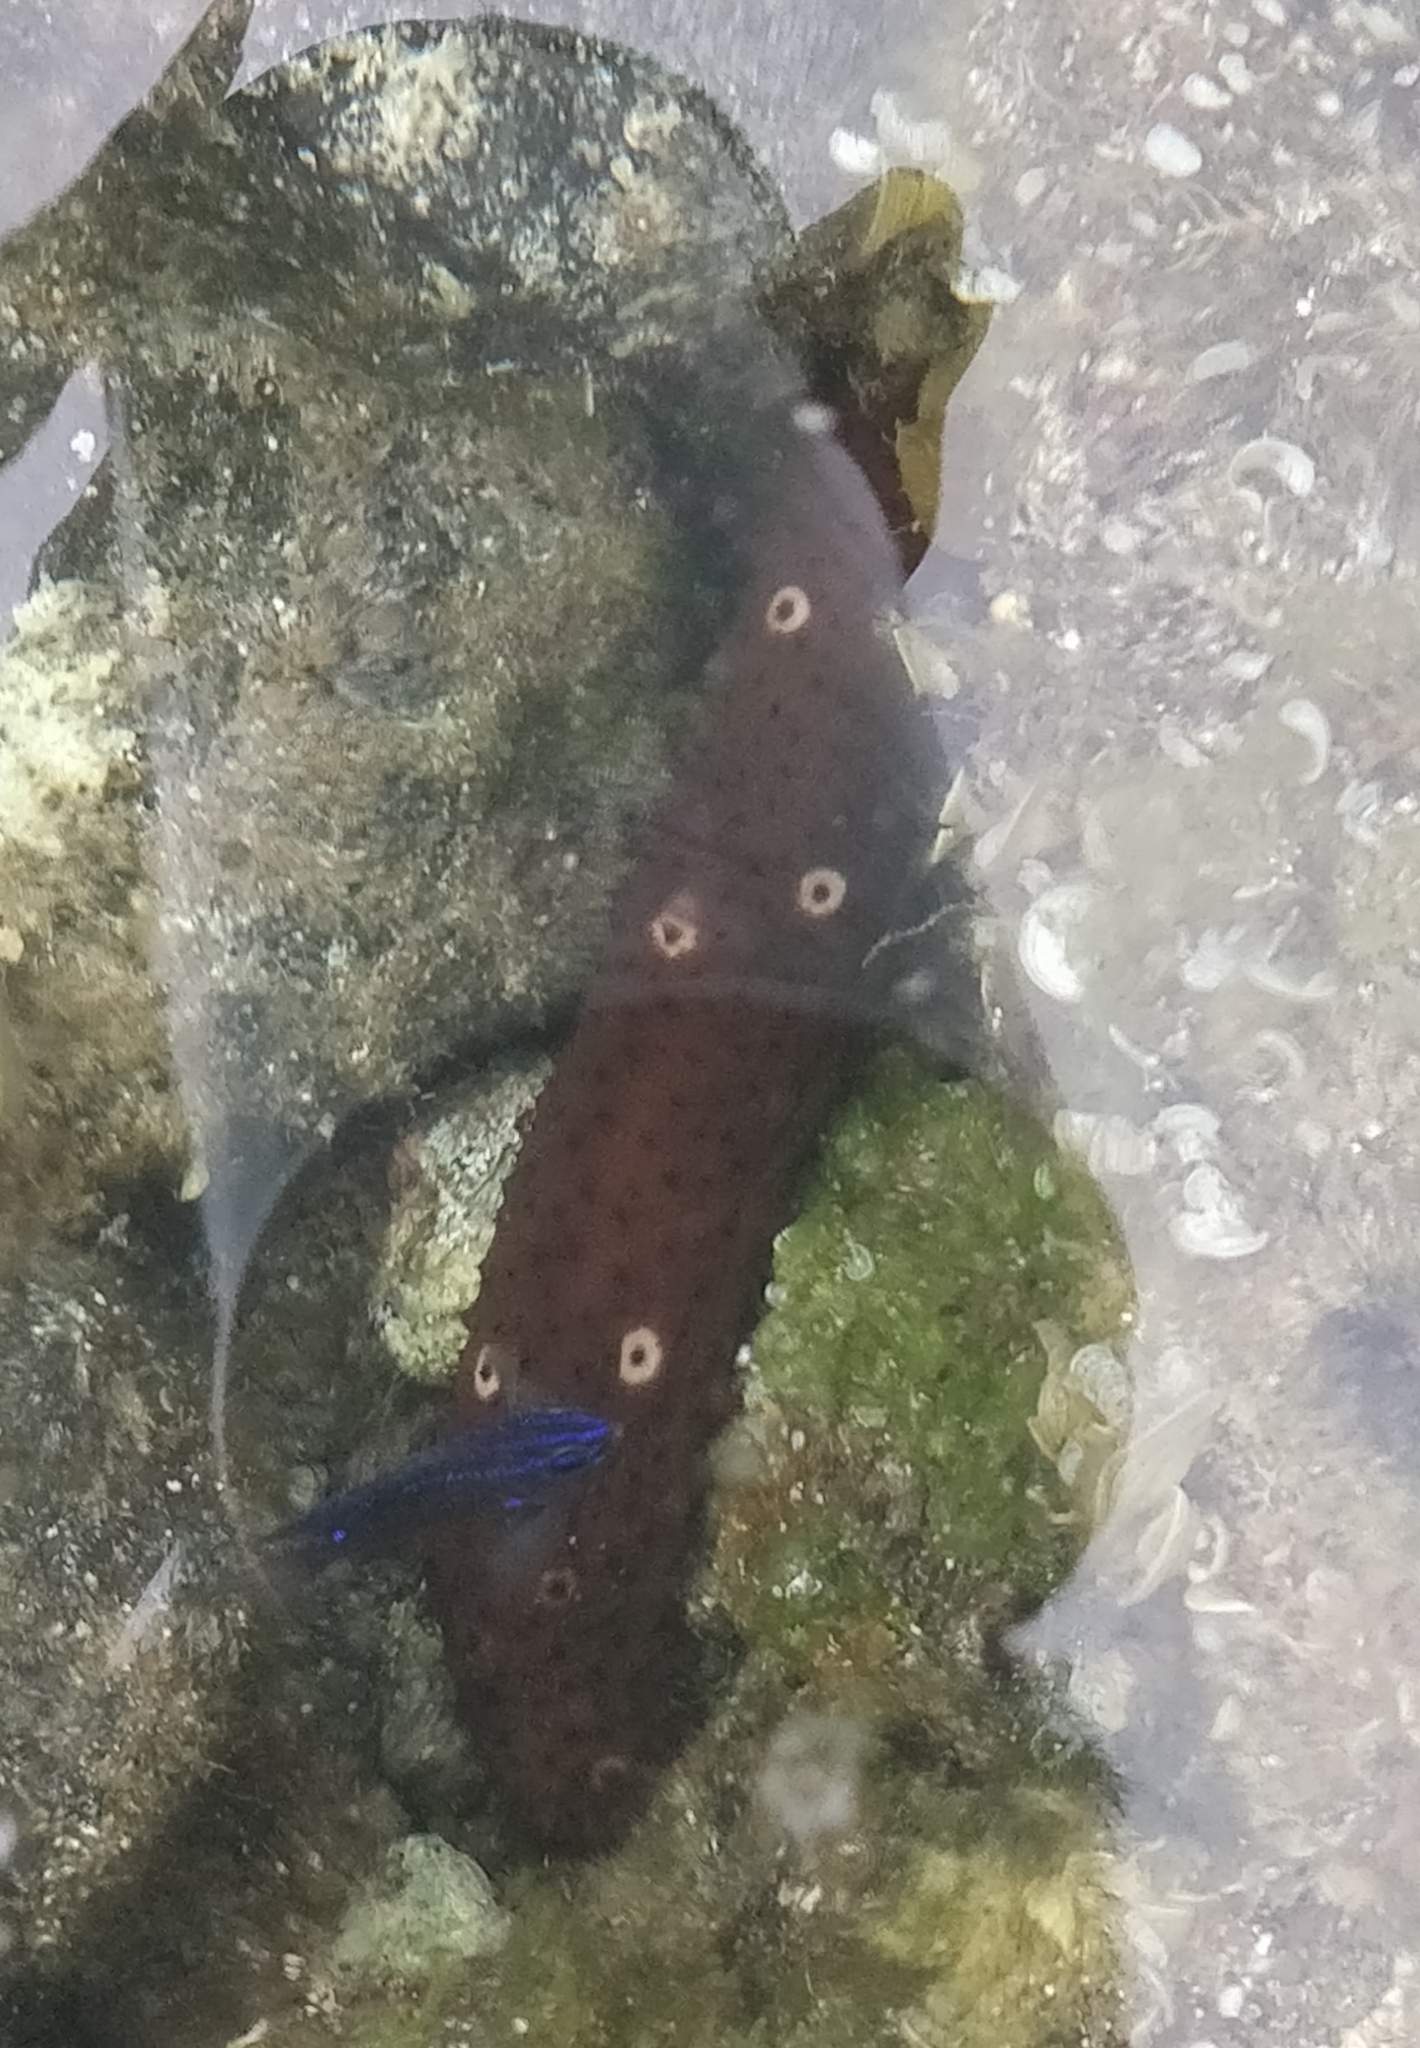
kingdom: Animalia
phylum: Echinodermata
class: Holothuroidea
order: Holothuriida
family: Holothuriidae
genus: Holothuria
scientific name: Holothuria sanctori
